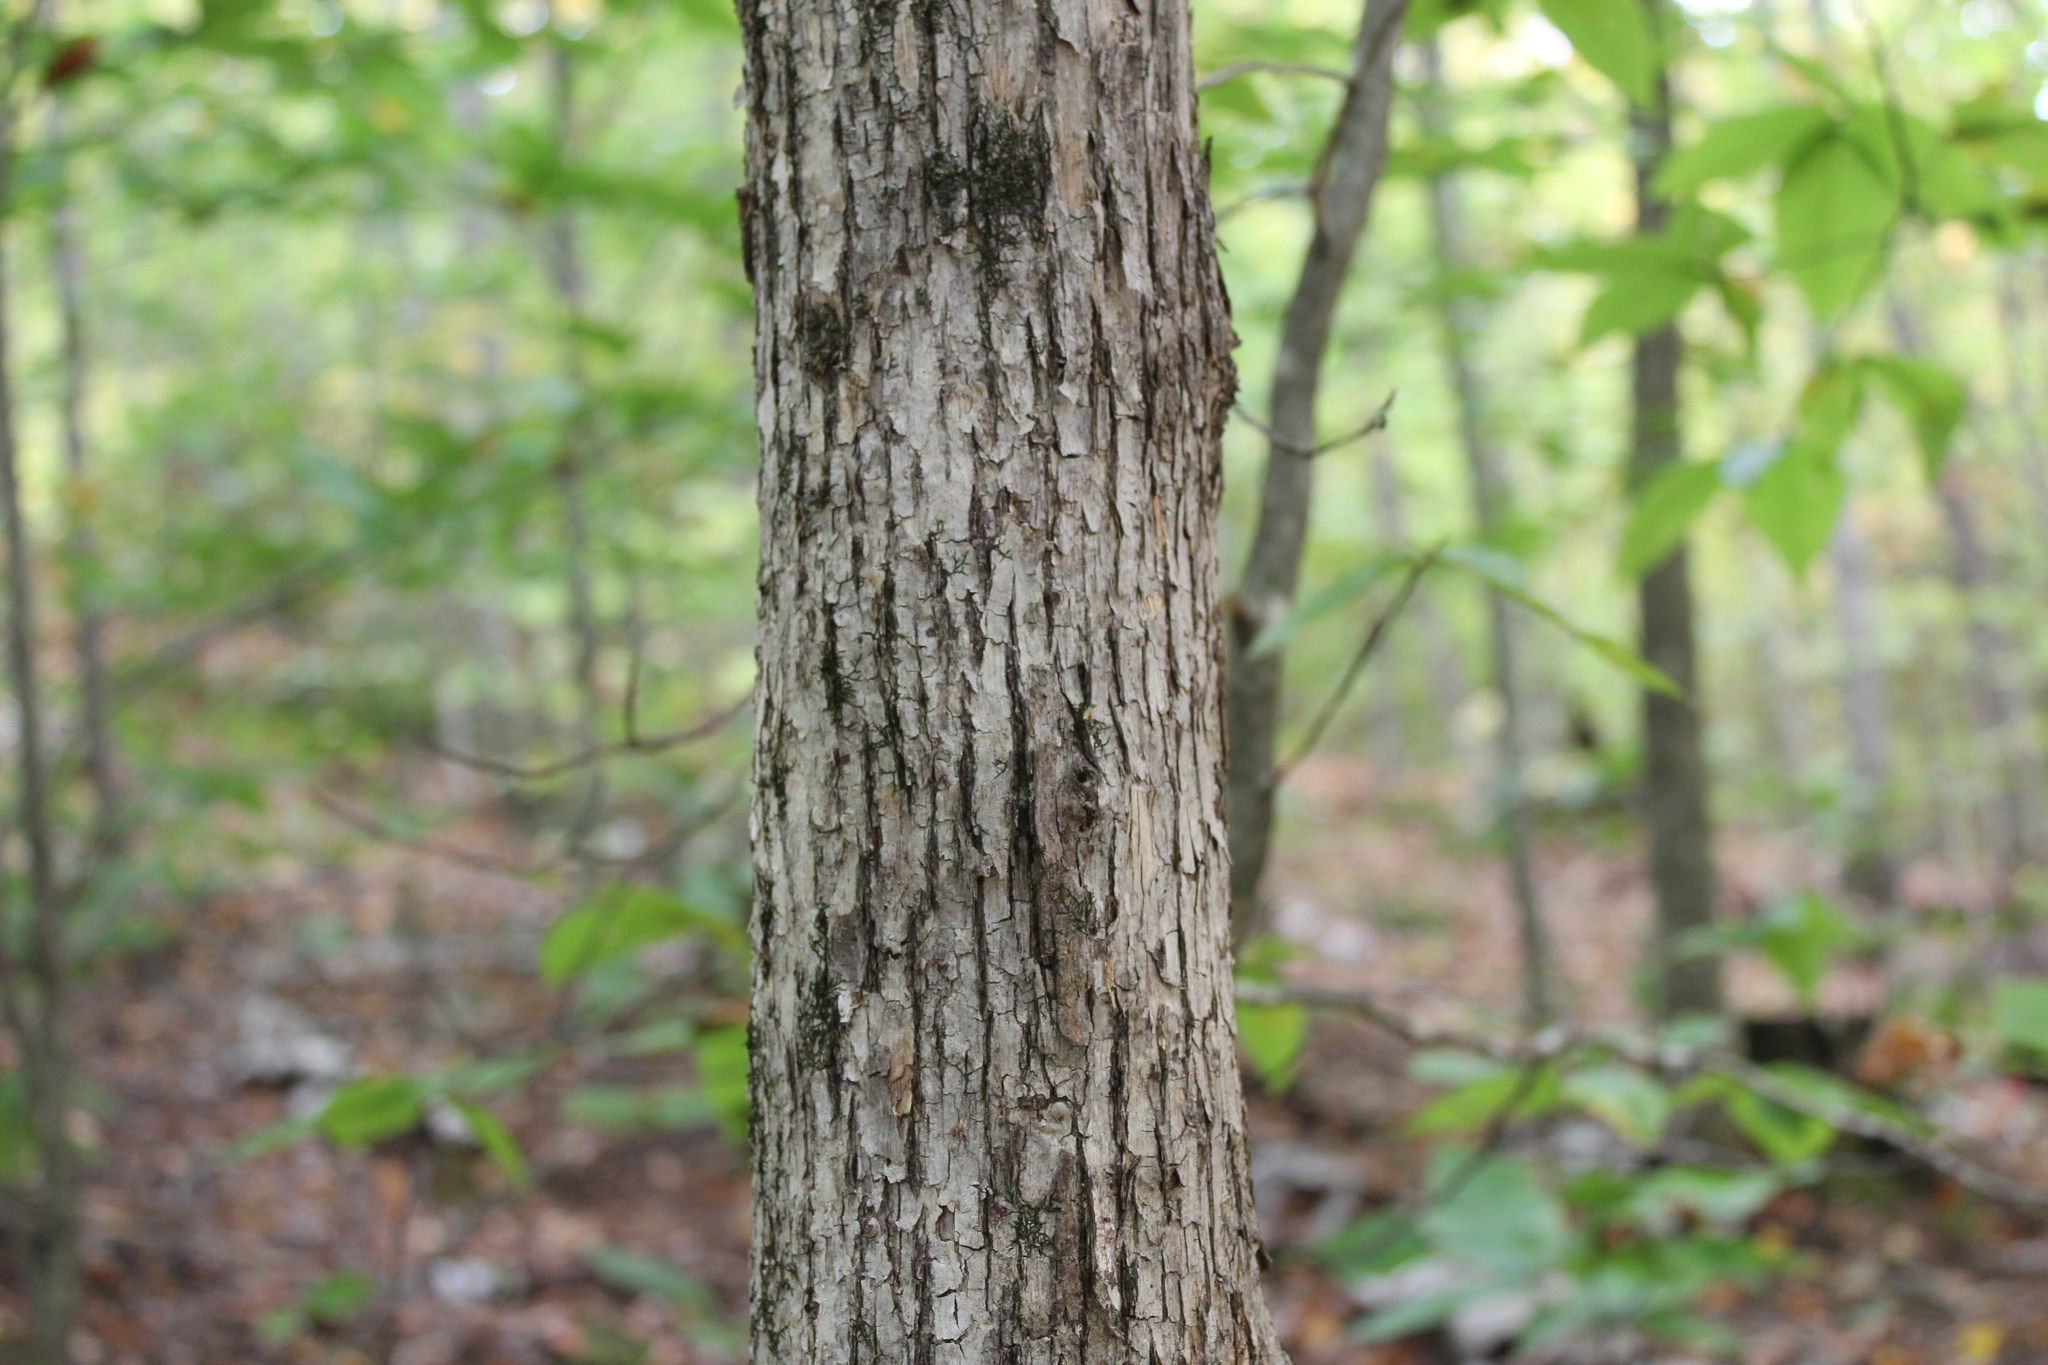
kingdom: Plantae
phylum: Tracheophyta
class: Magnoliopsida
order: Fagales
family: Betulaceae
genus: Ostrya
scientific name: Ostrya virginiana
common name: Ironwood
